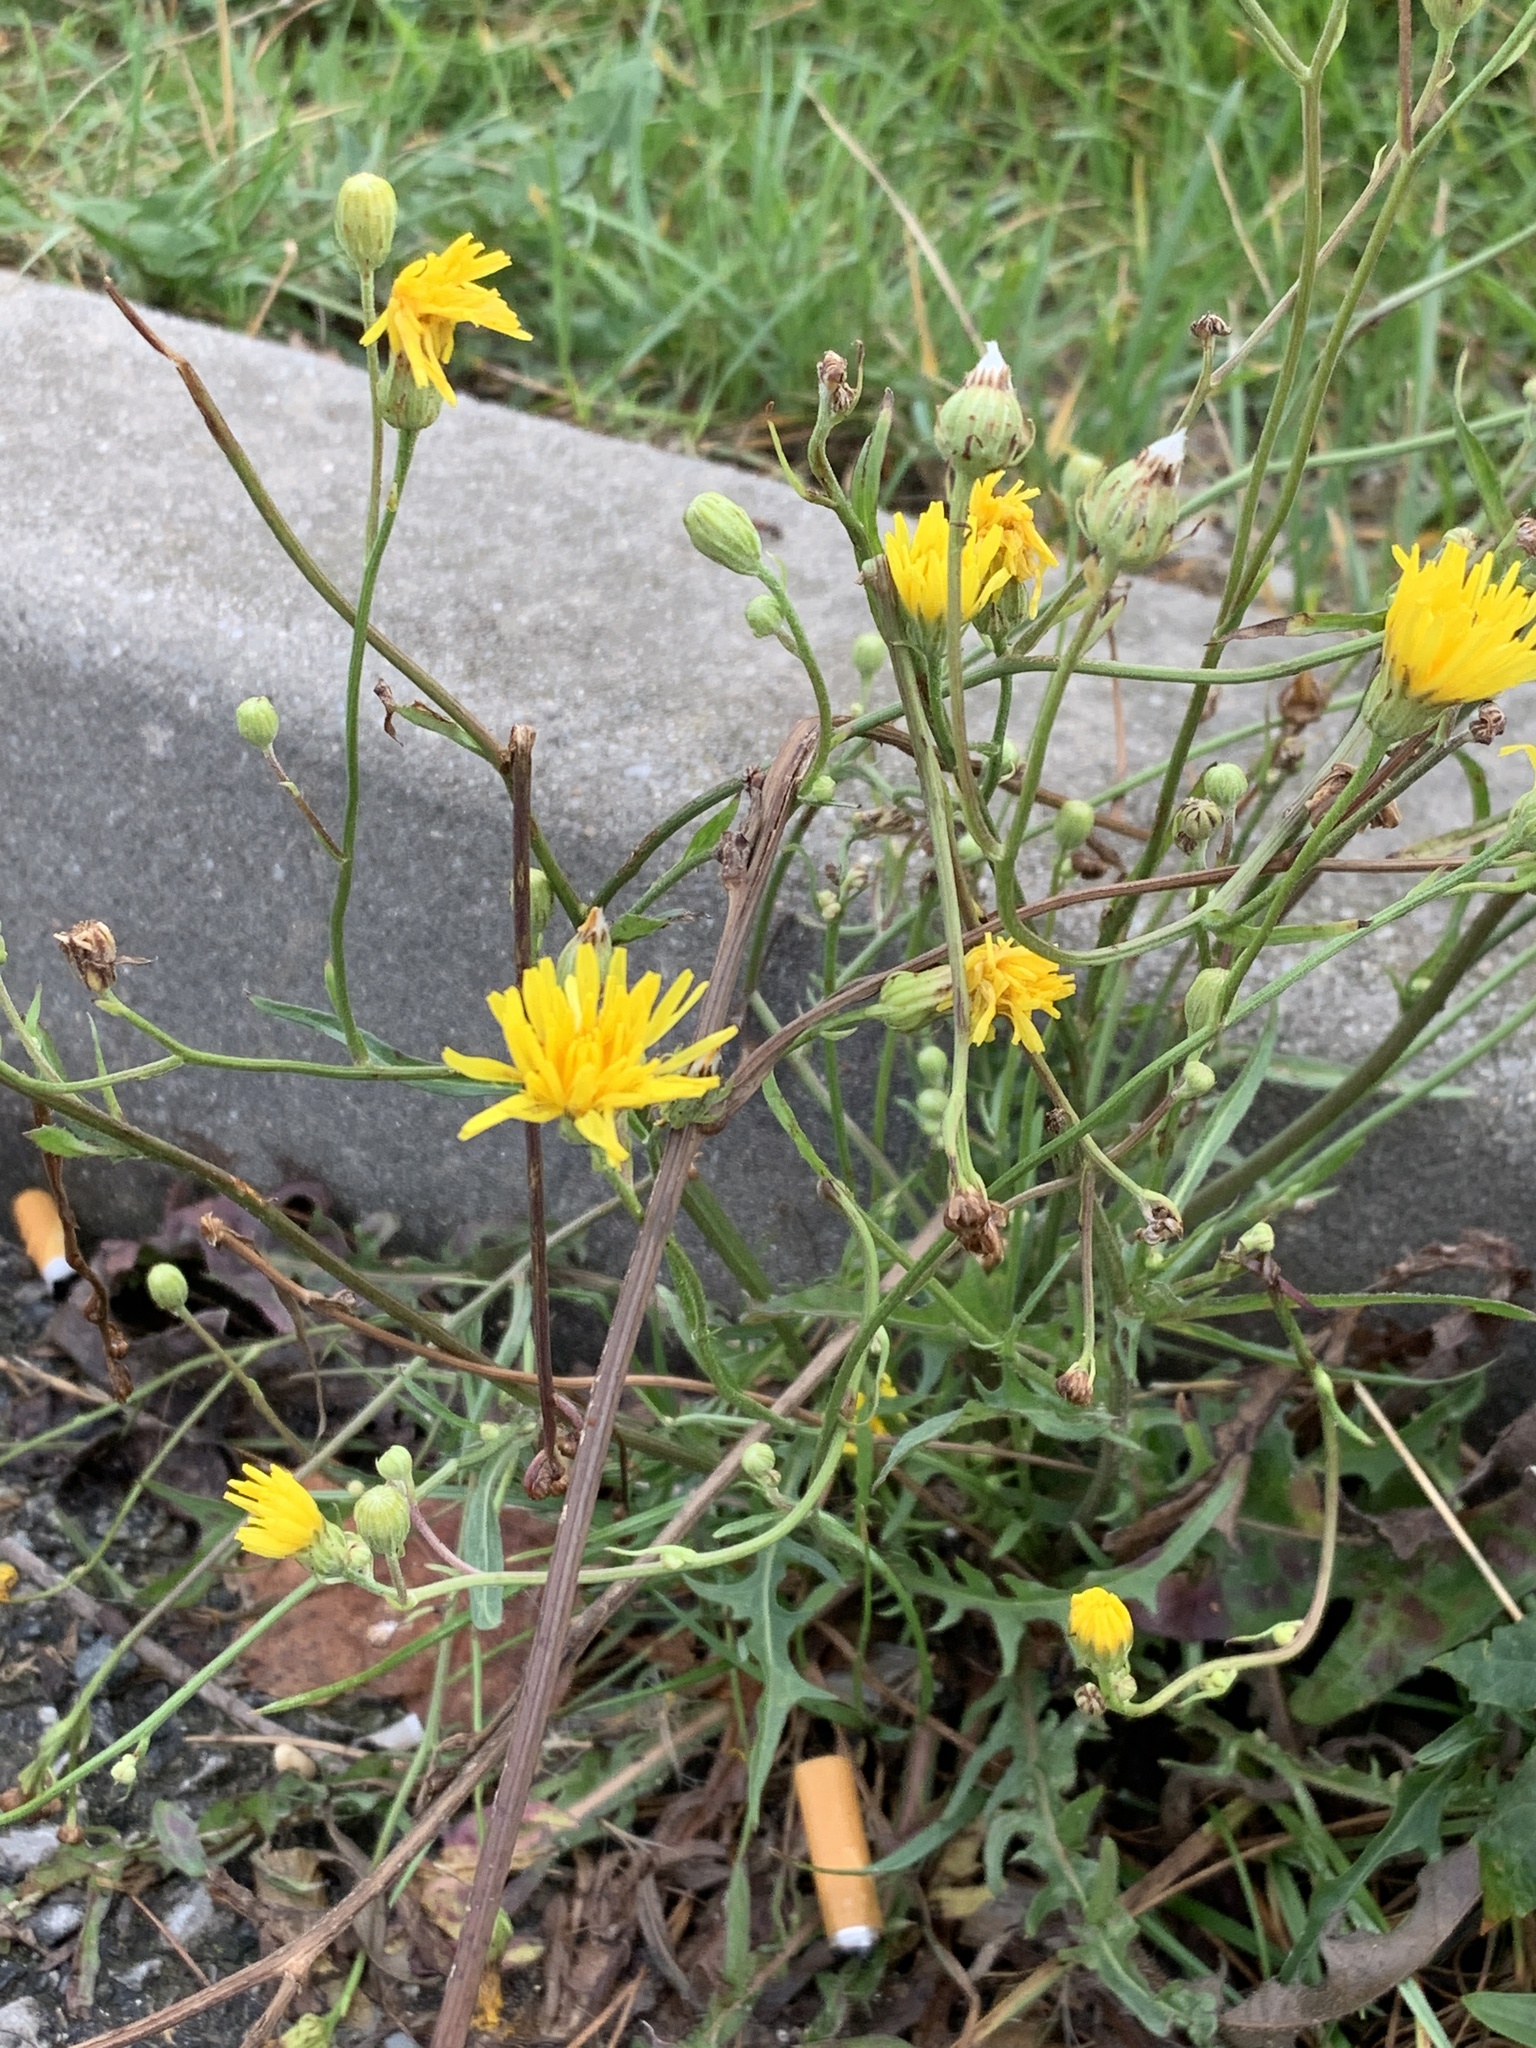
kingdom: Plantae
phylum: Tracheophyta
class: Magnoliopsida
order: Asterales
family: Asteraceae
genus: Crepis
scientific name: Crepis biennis
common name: Rough hawk's-beard
